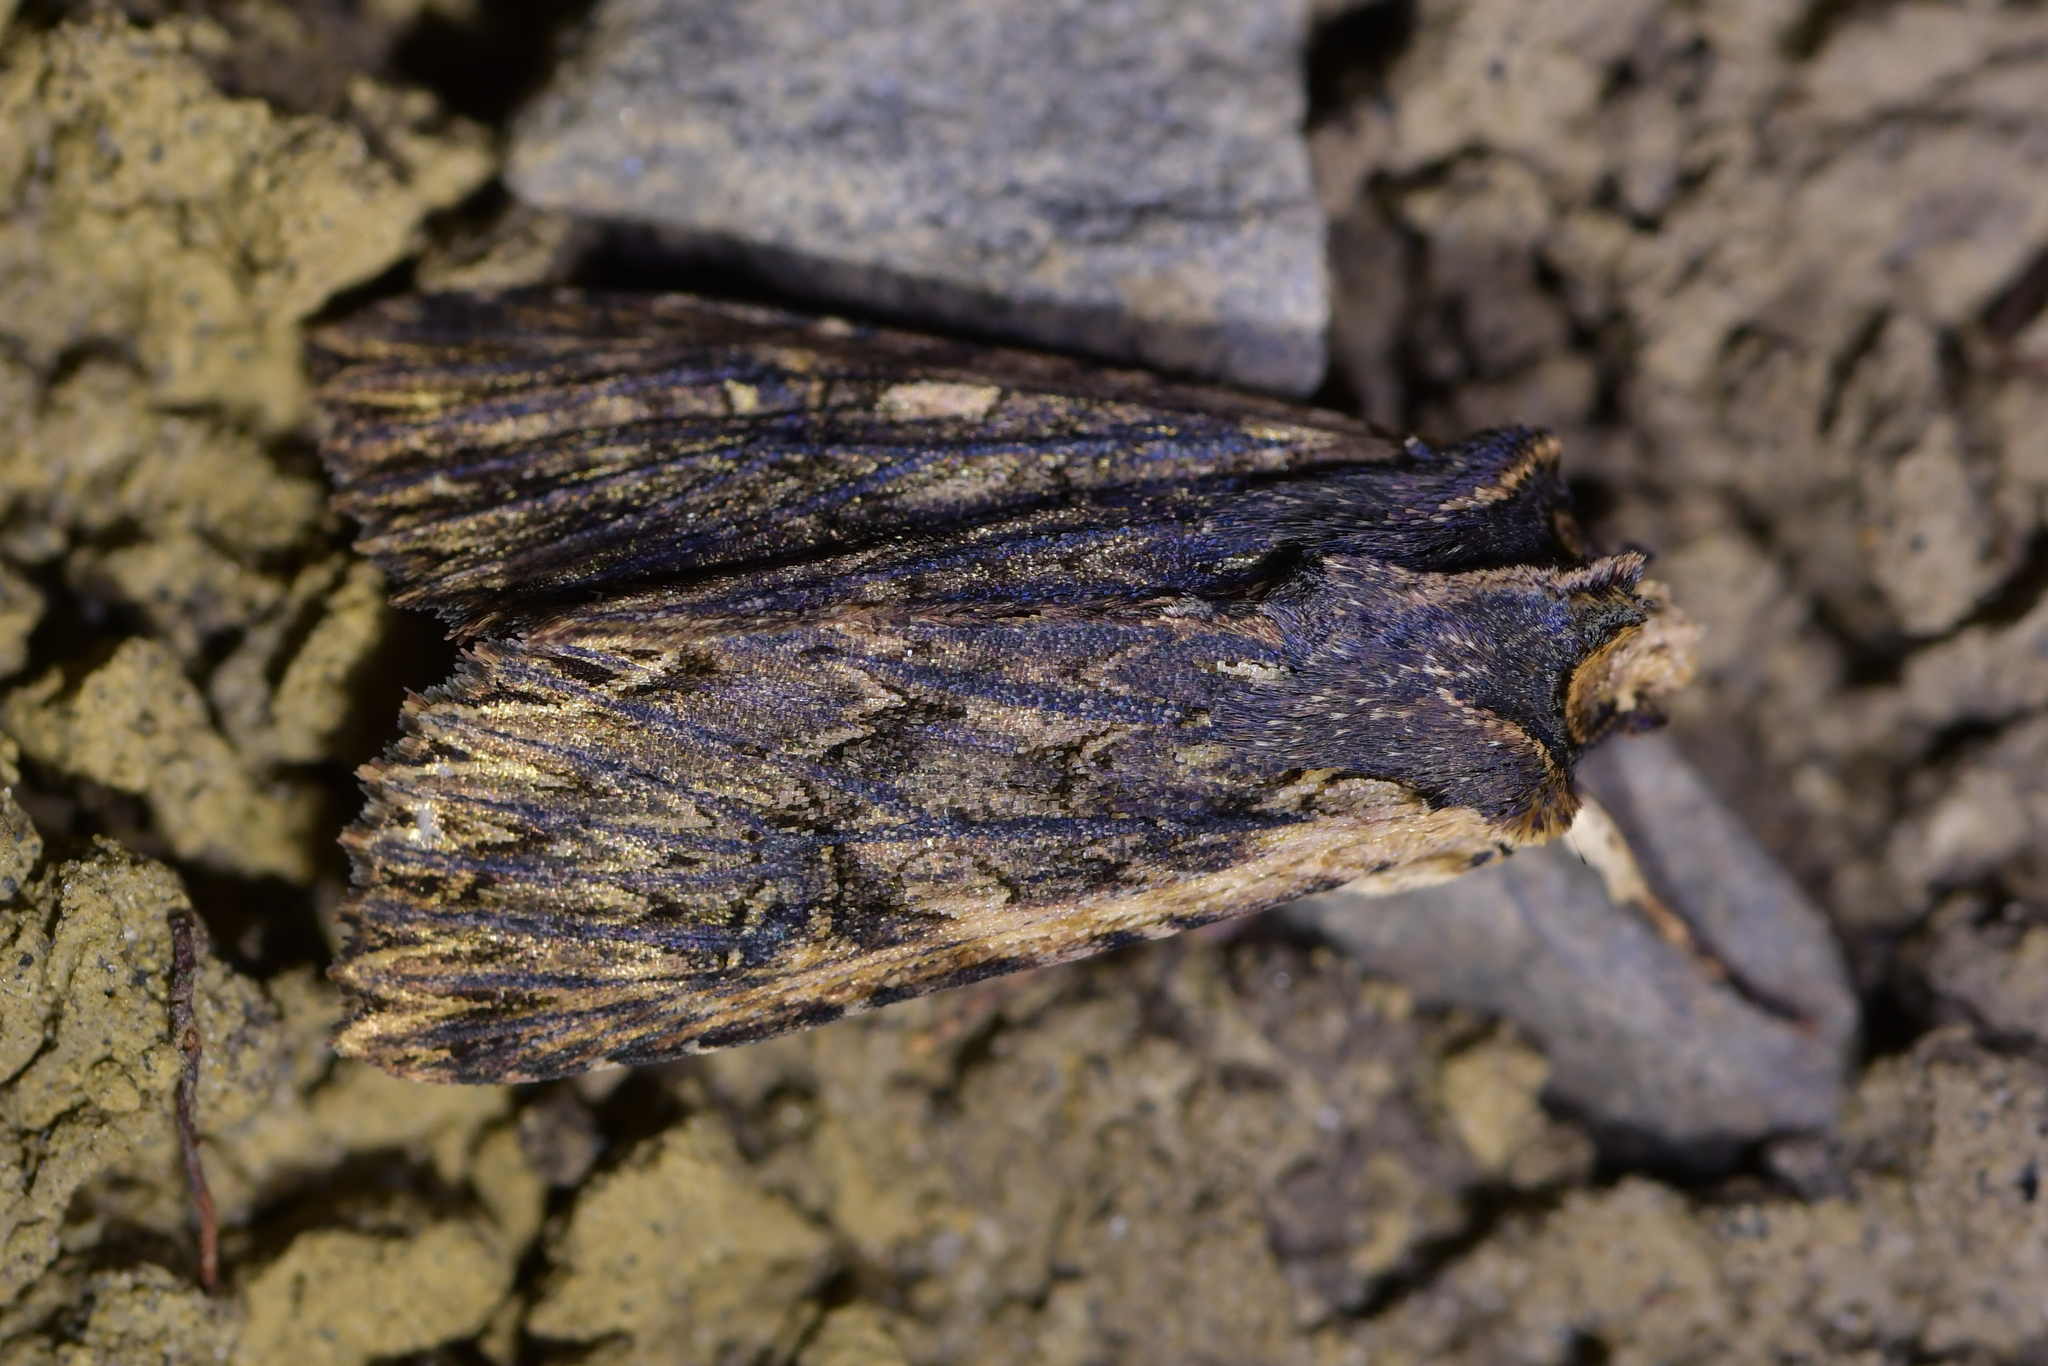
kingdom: Animalia
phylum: Arthropoda
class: Insecta
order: Lepidoptera
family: Noctuidae
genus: Meterana
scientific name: Meterana alcyone
